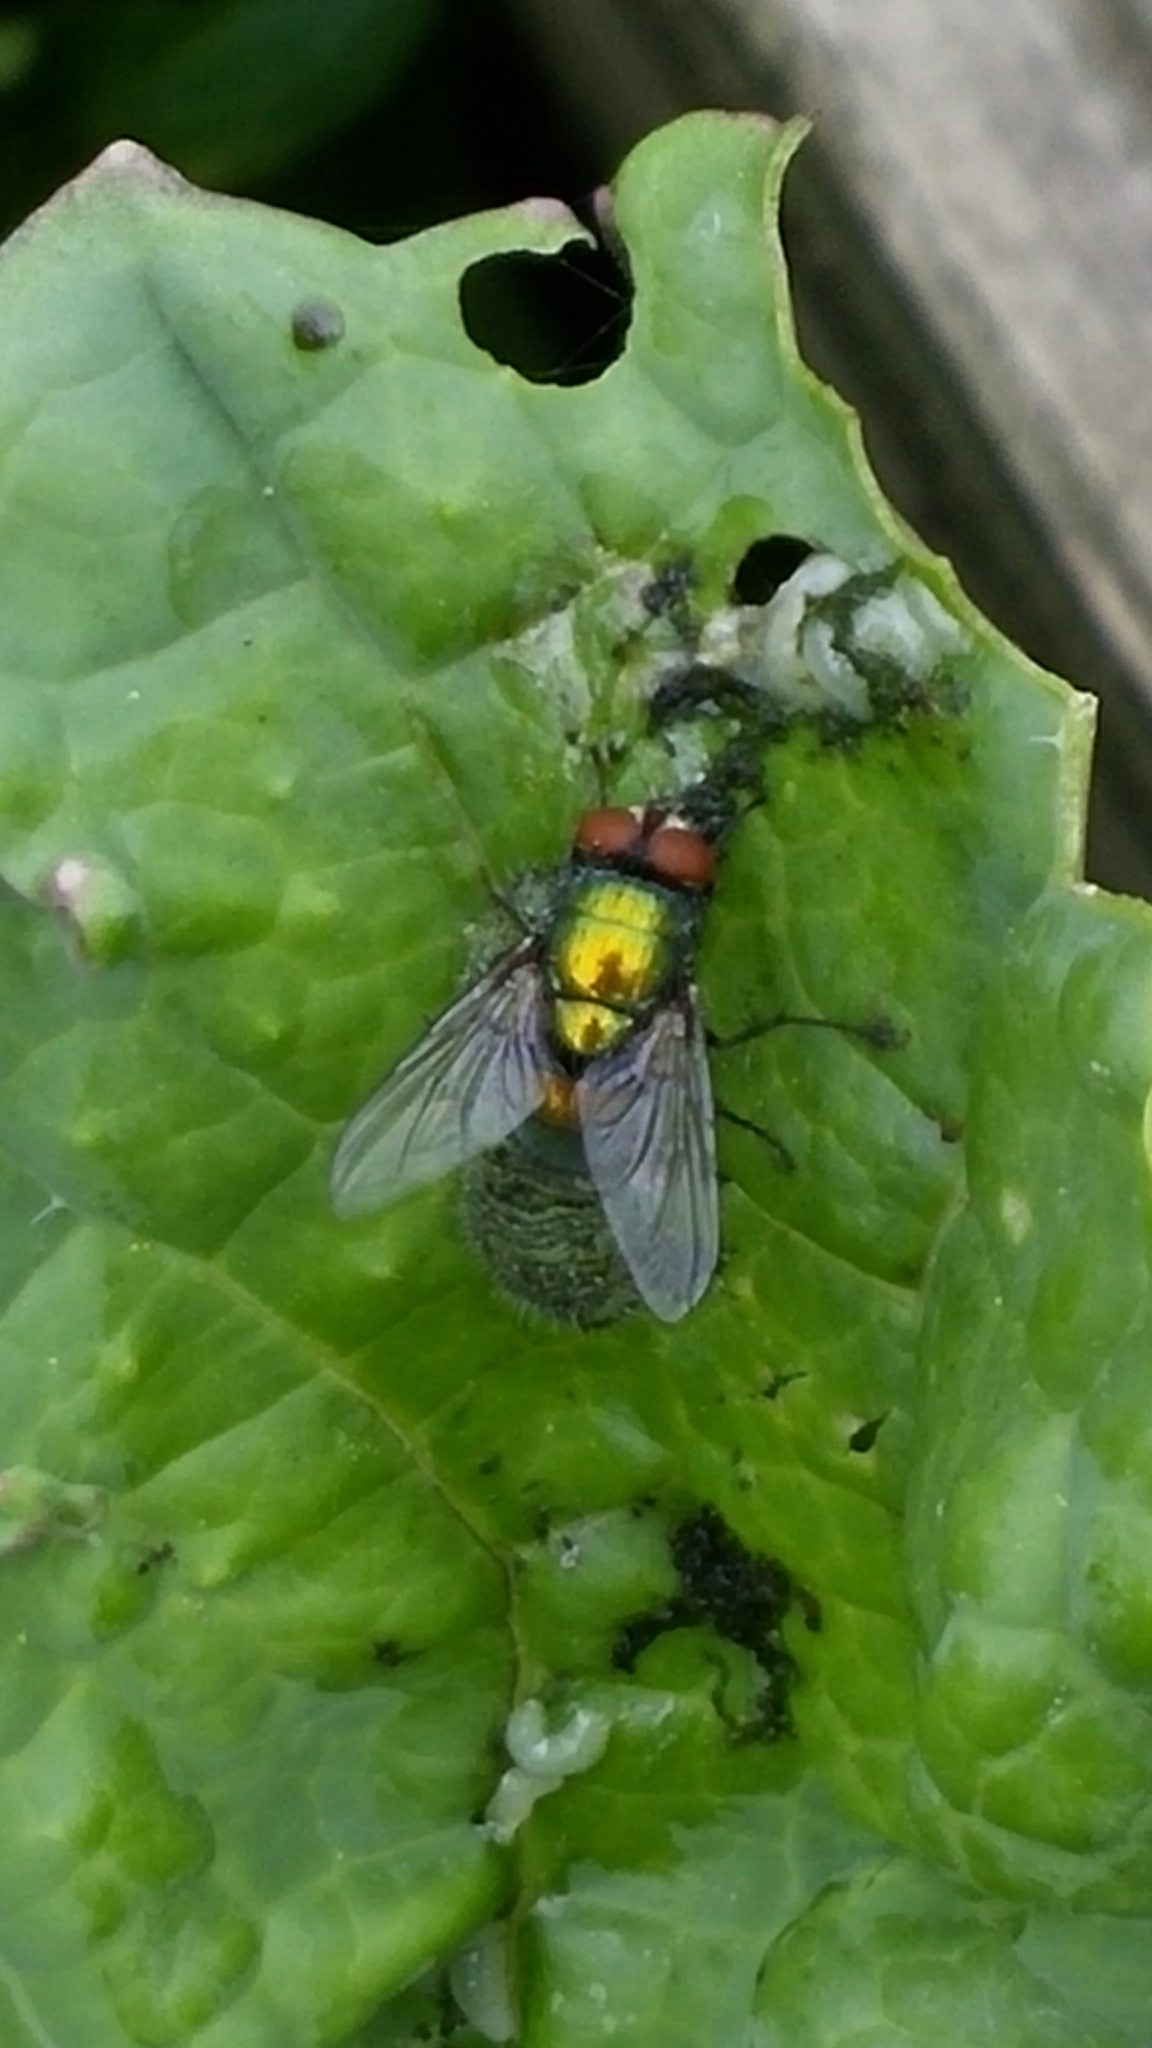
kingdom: Animalia
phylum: Arthropoda
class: Insecta
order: Diptera
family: Calliphoridae
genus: Lucilia
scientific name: Lucilia sericata
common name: Blow fly
